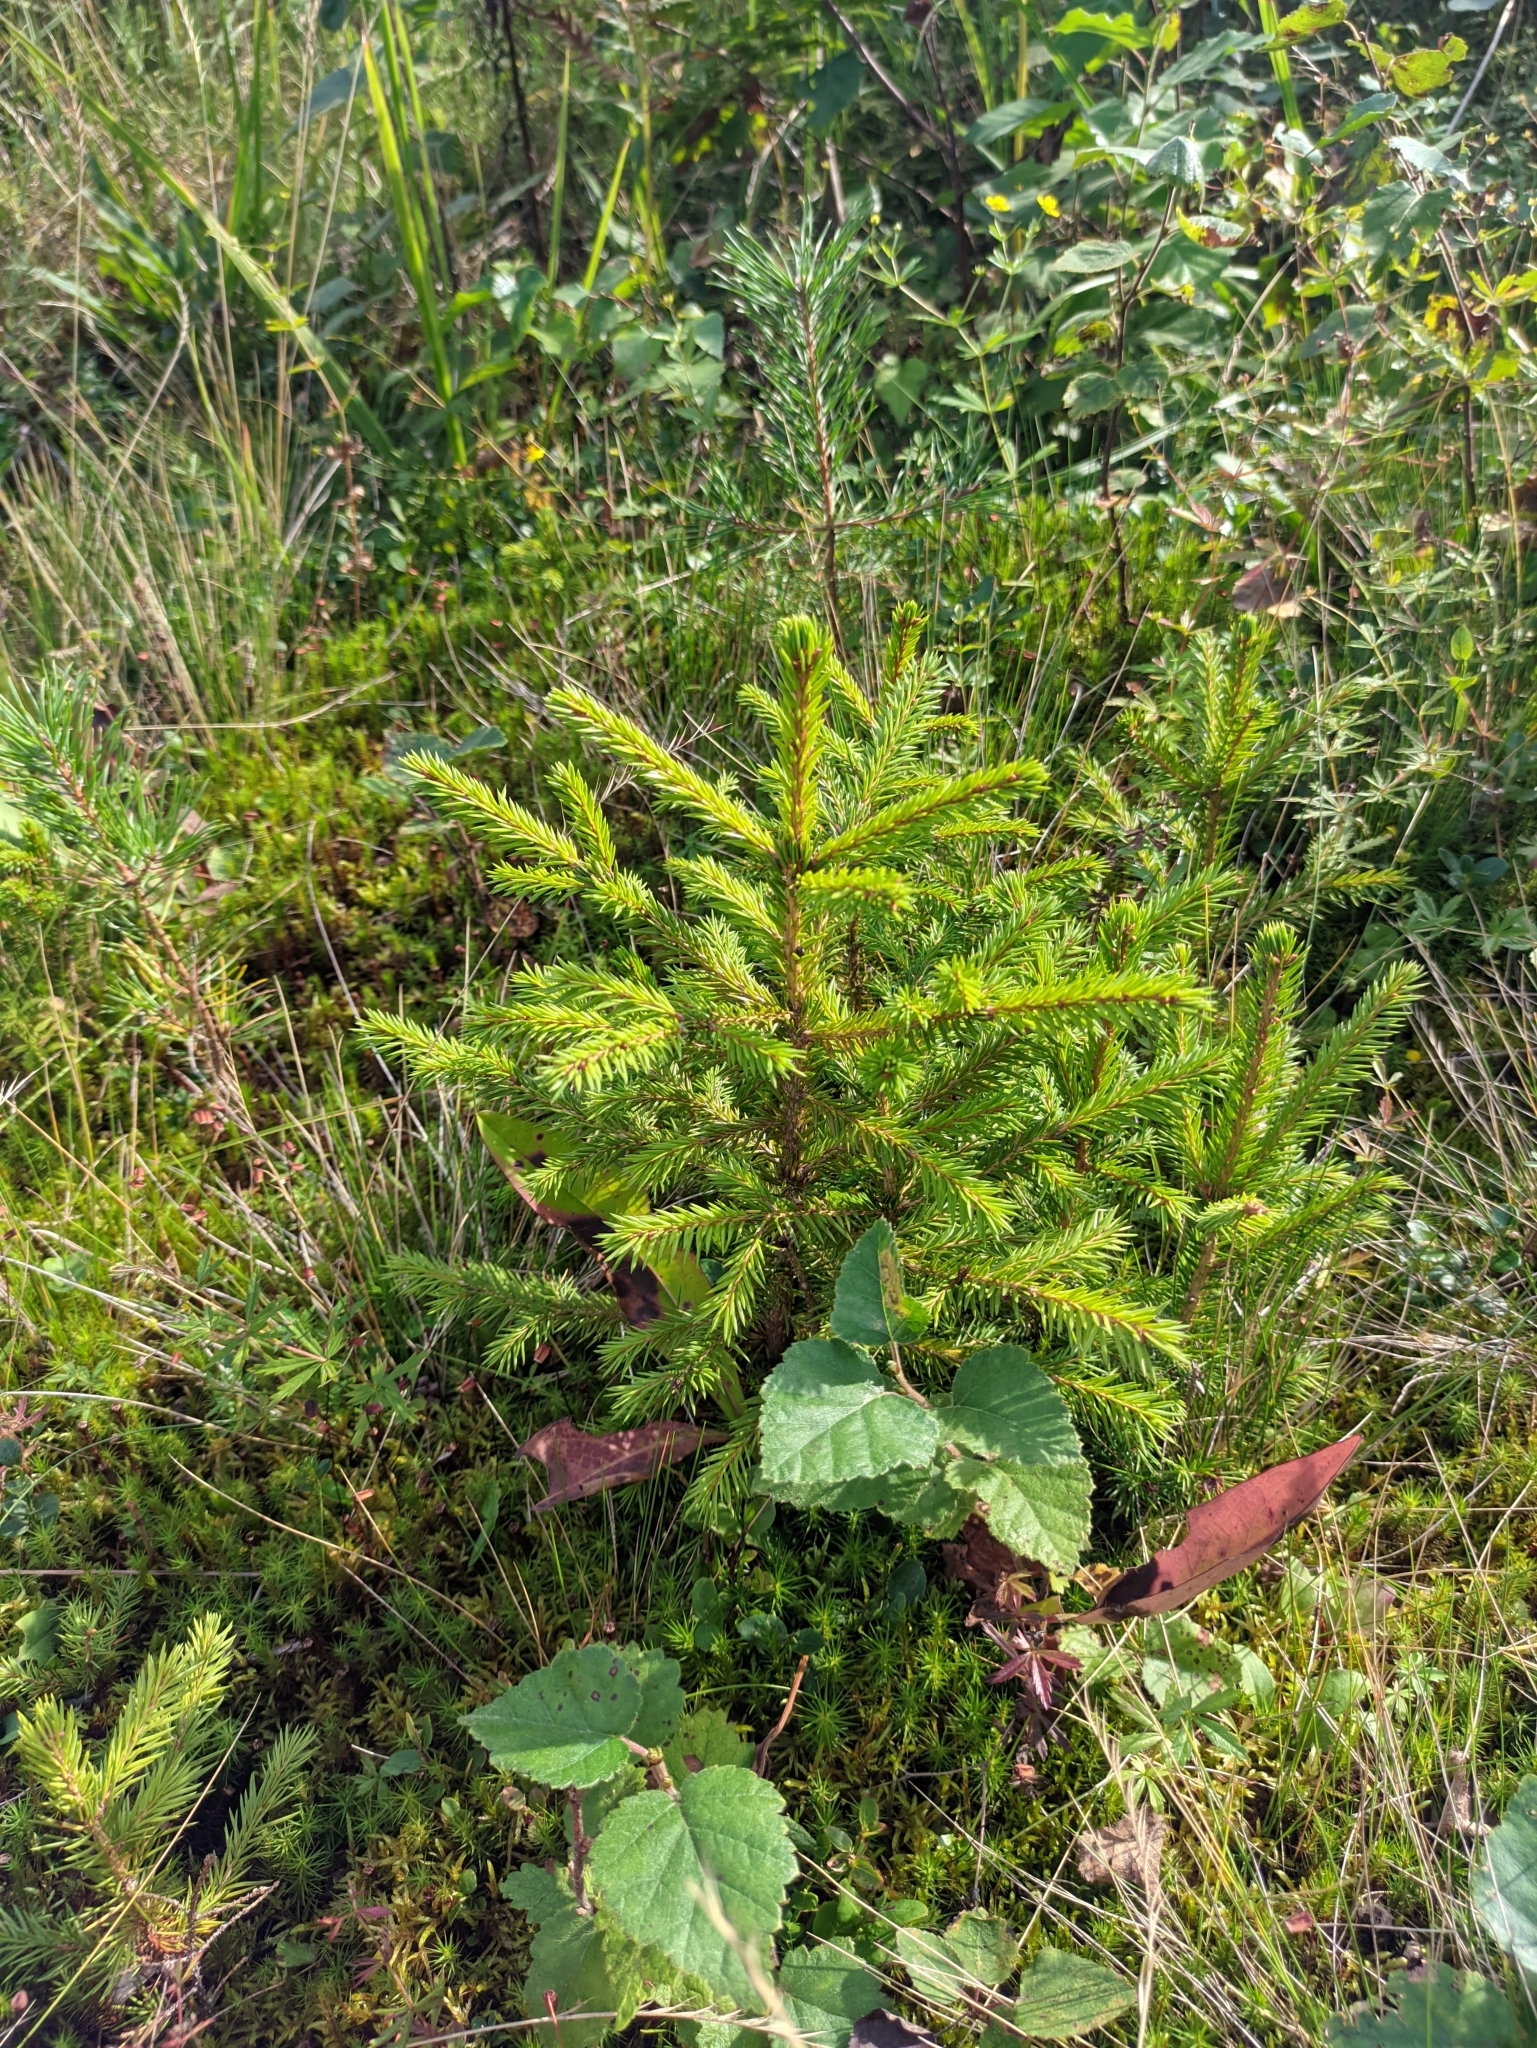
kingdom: Plantae
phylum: Tracheophyta
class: Pinopsida
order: Pinales
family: Pinaceae
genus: Picea
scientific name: Picea abies
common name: Norway spruce
